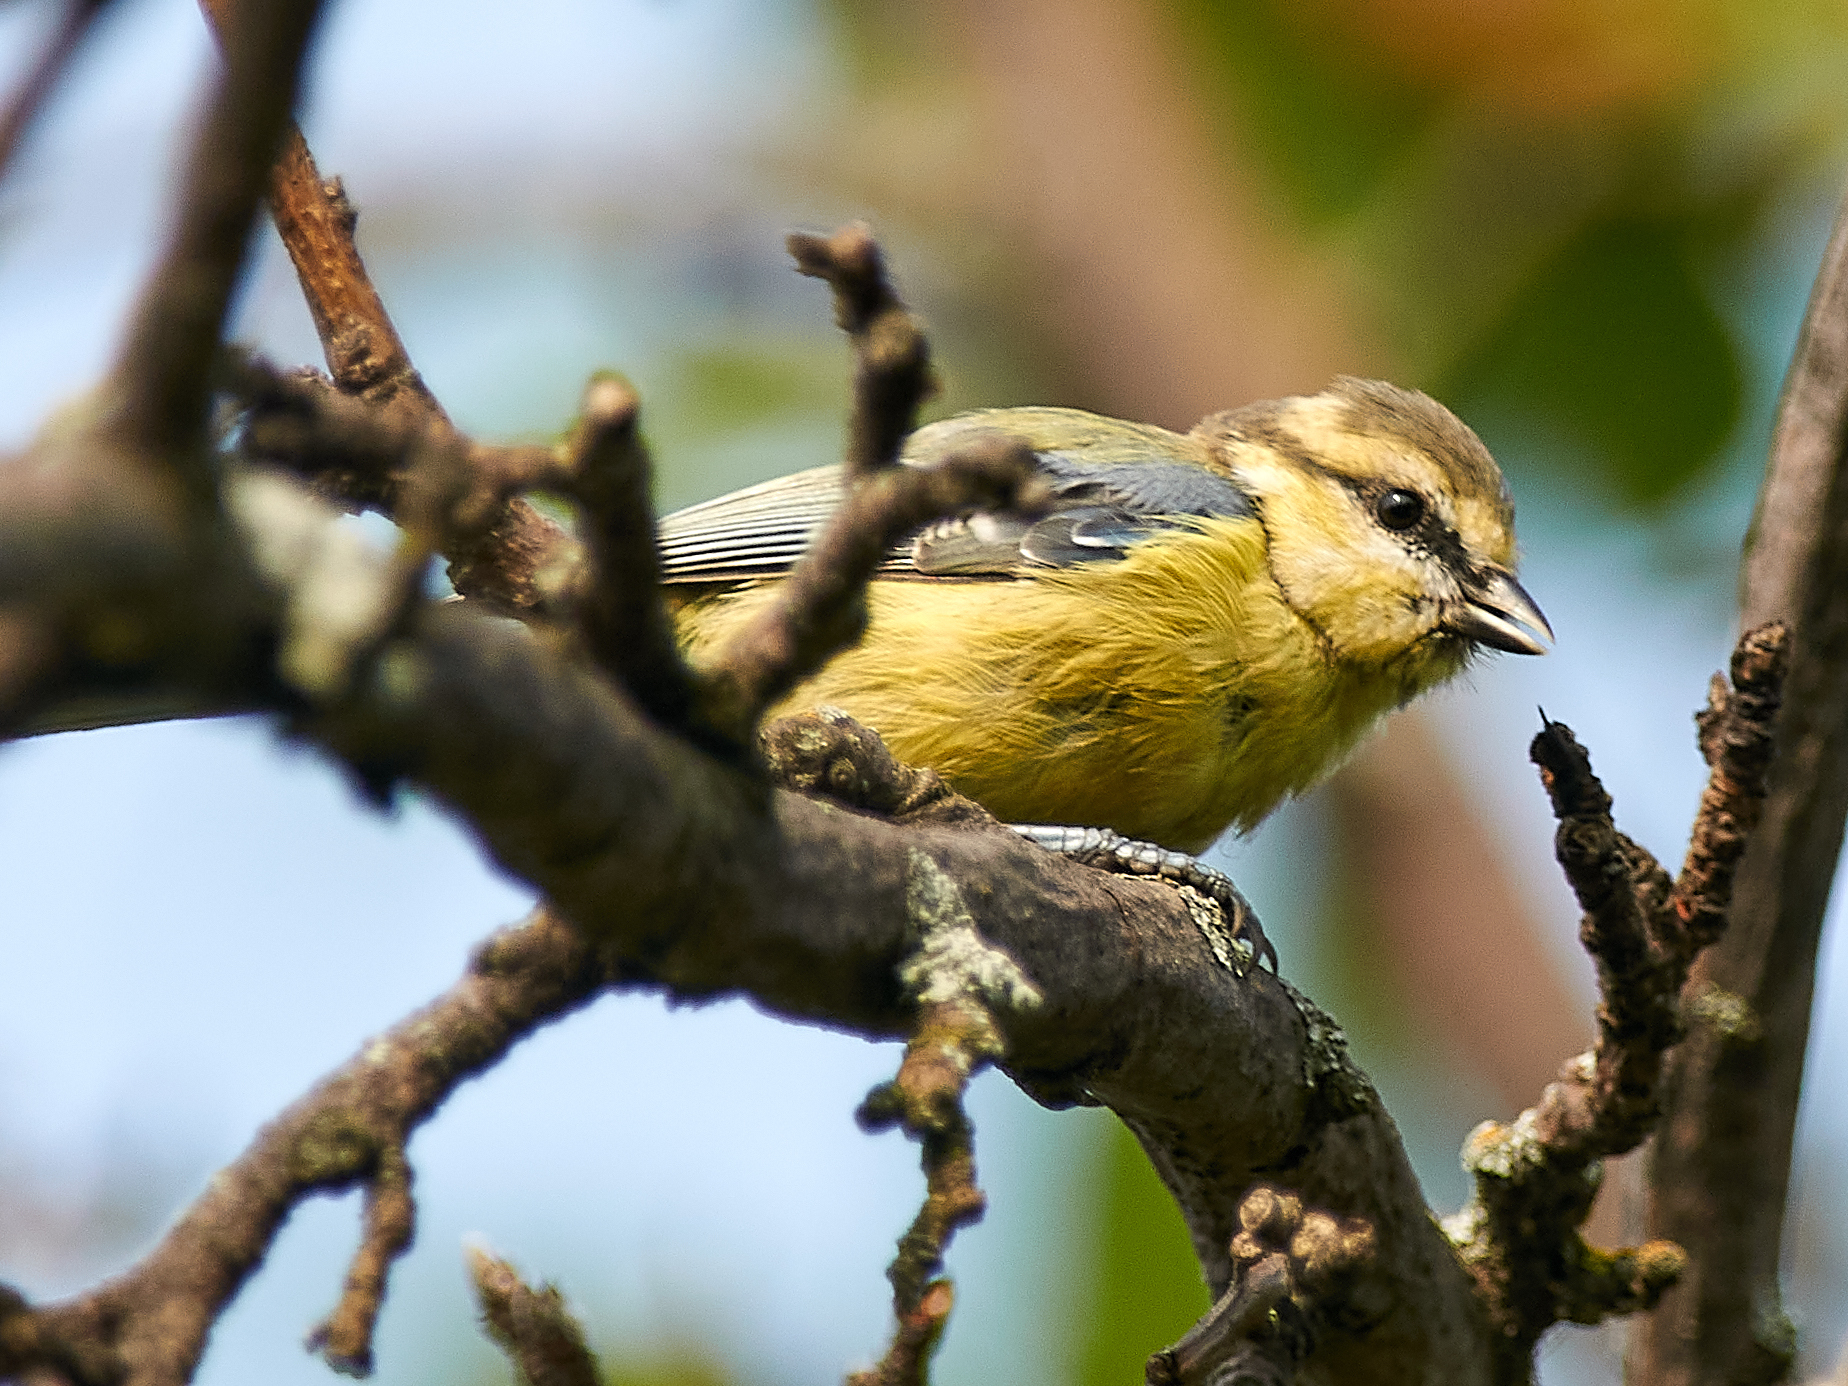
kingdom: Animalia
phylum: Chordata
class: Aves
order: Passeriformes
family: Paridae
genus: Cyanistes
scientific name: Cyanistes caeruleus
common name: Eurasian blue tit
